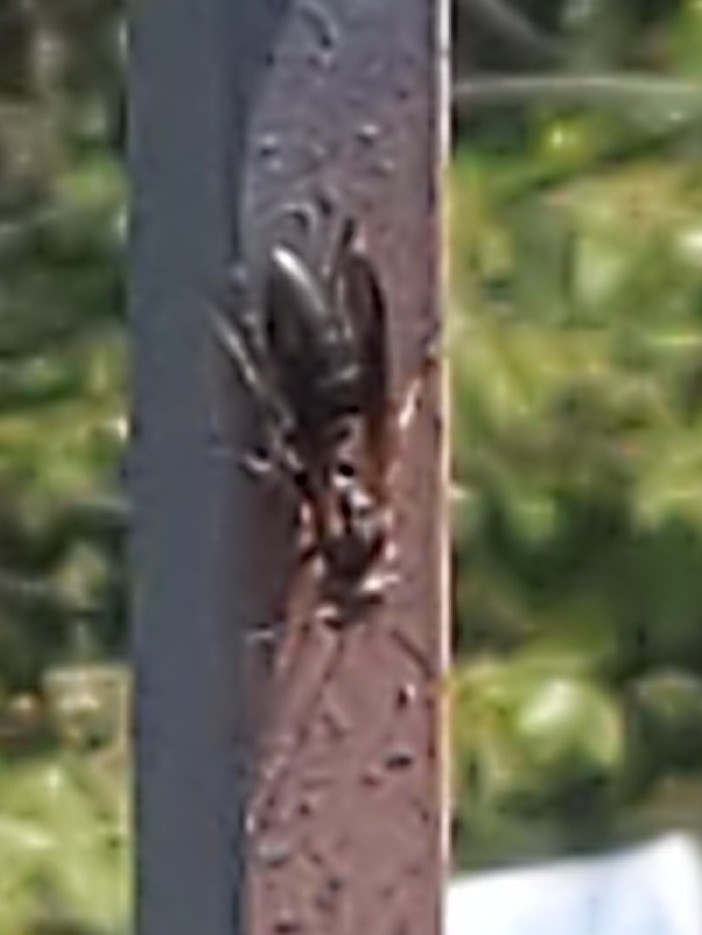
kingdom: Animalia
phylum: Arthropoda
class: Insecta
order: Hymenoptera
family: Vespidae
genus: Fuscopolistes
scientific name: Fuscopolistes
